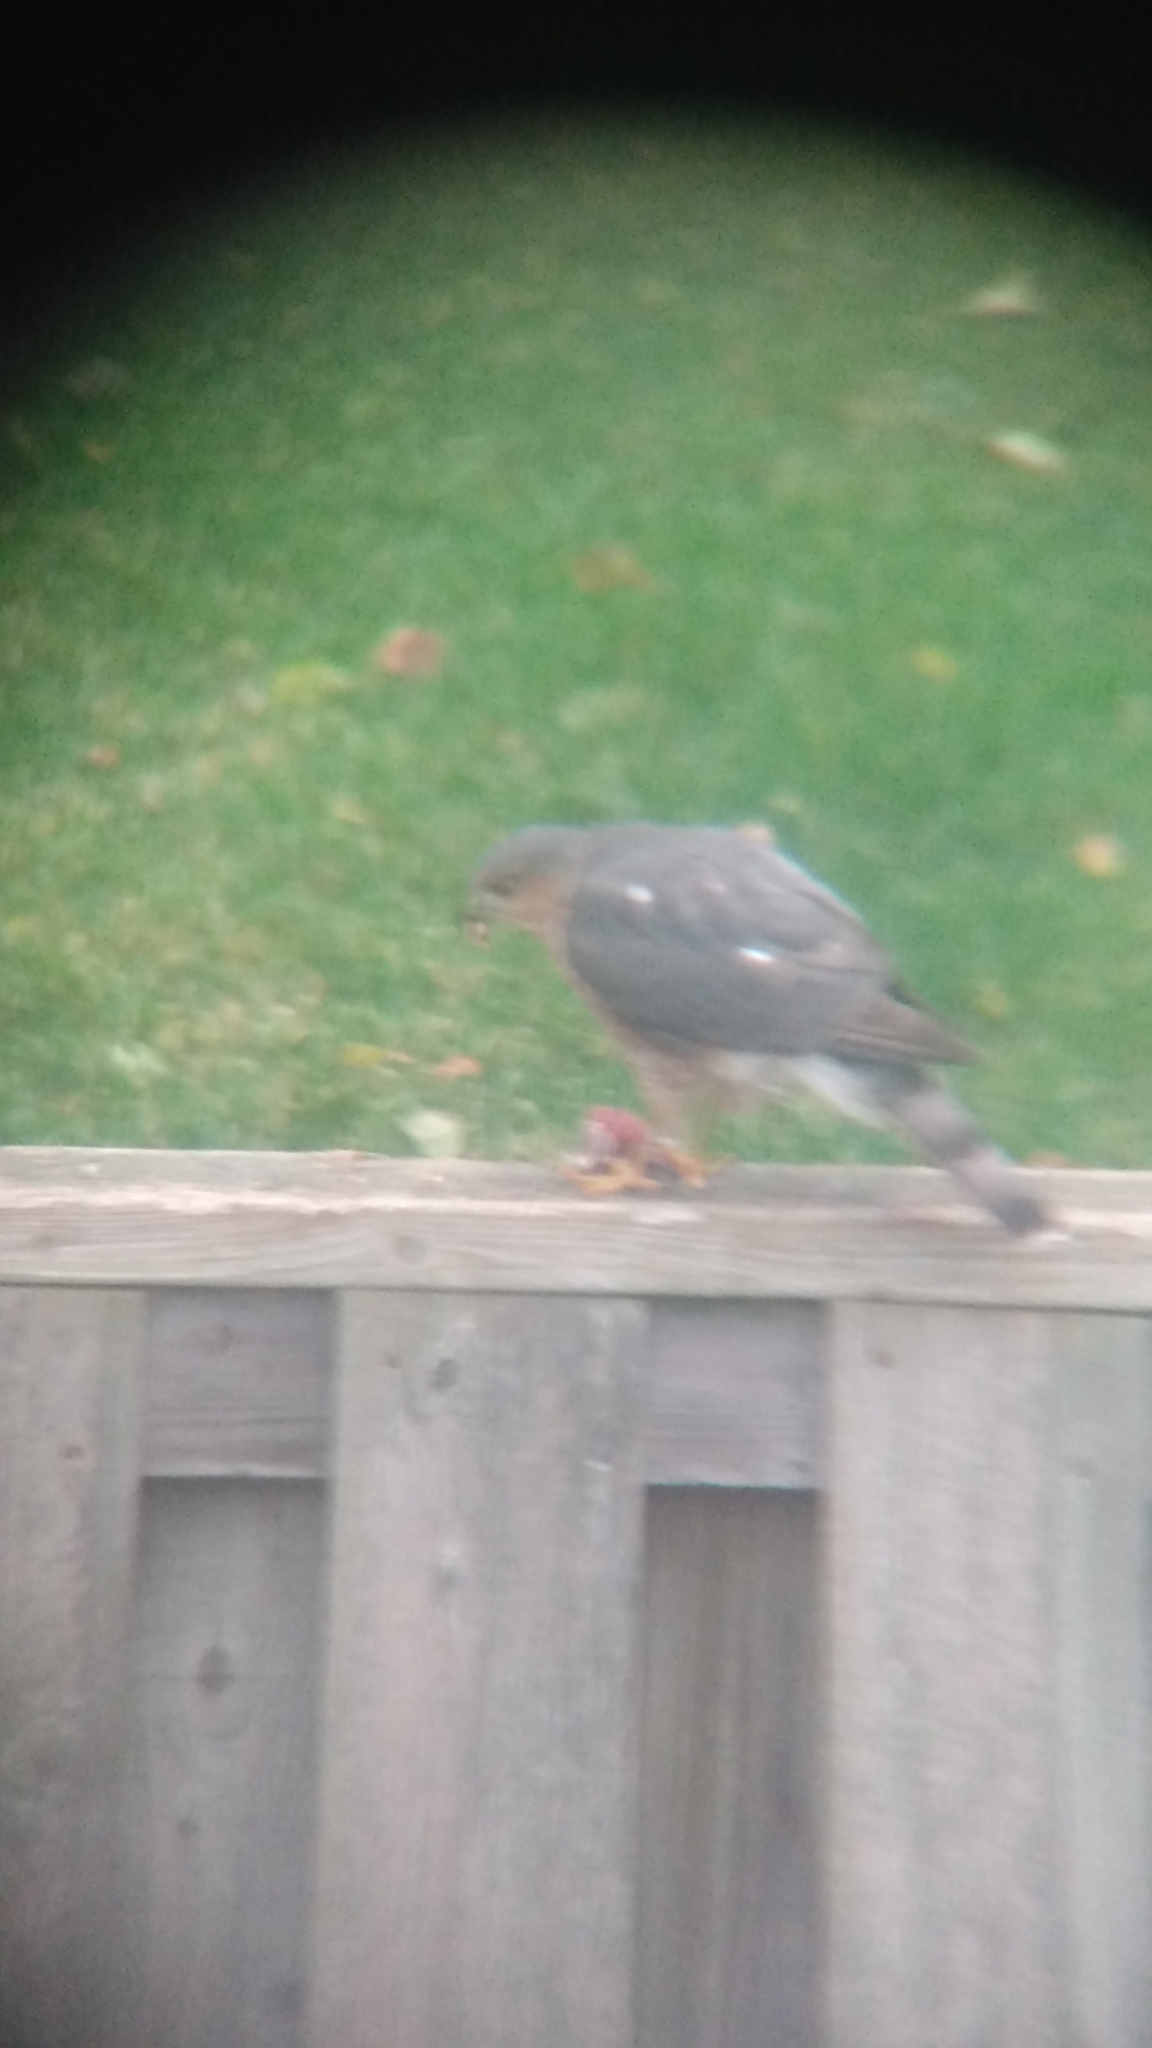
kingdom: Animalia
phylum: Chordata
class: Aves
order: Accipitriformes
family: Accipitridae
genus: Accipiter
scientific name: Accipiter striatus
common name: Sharp-shinned hawk
